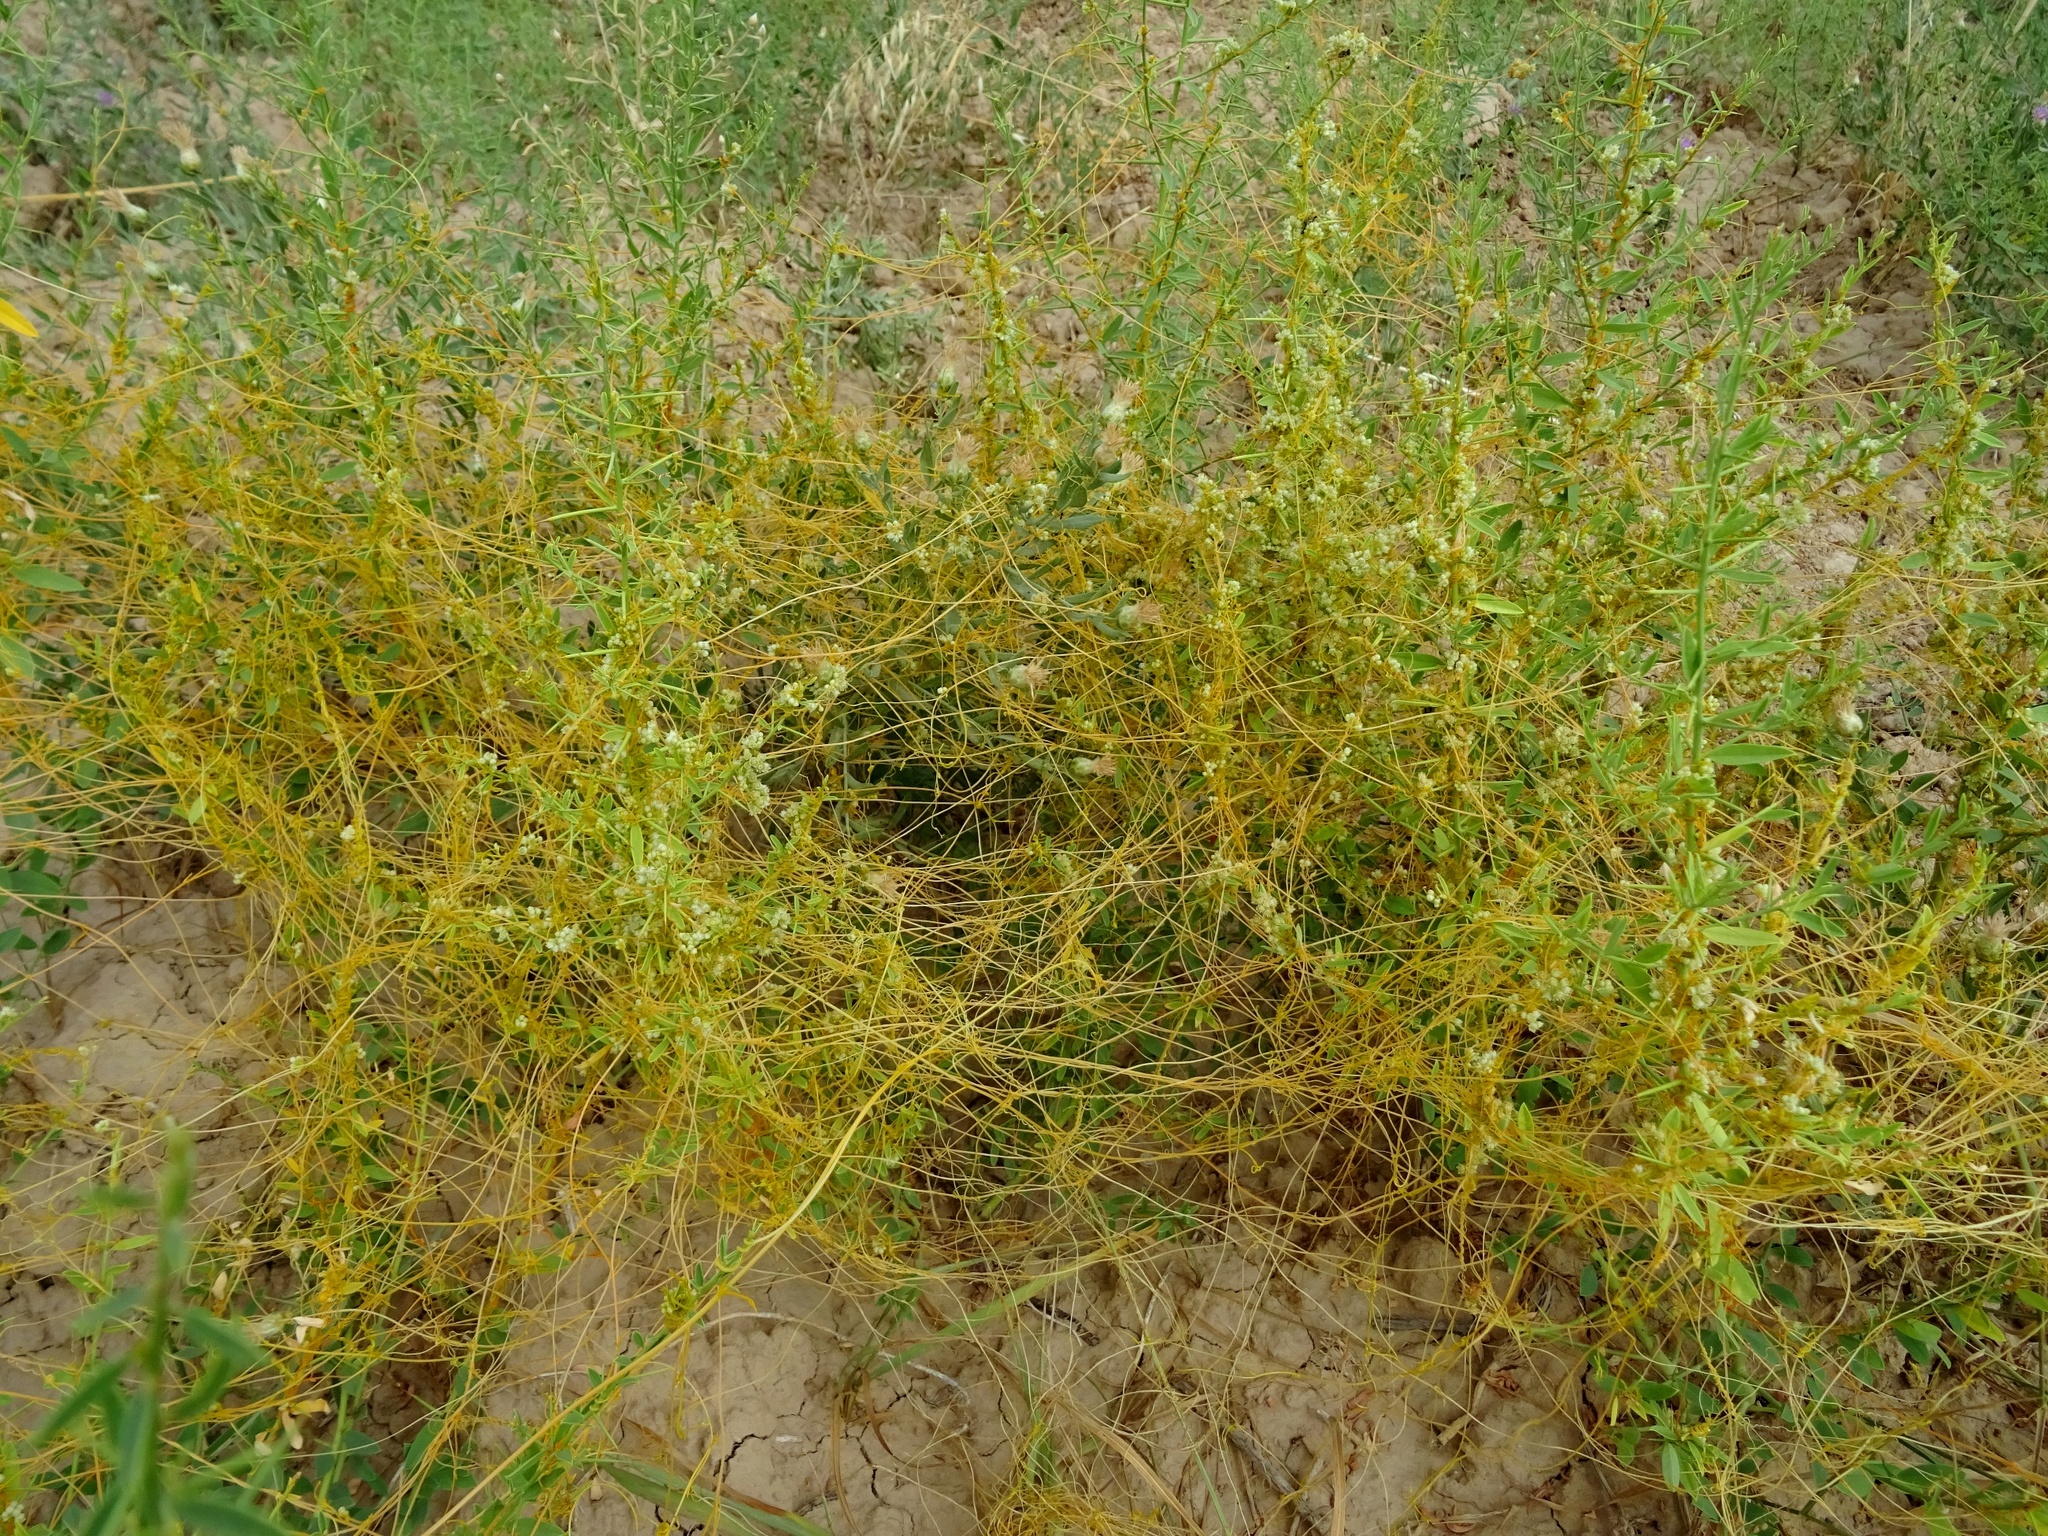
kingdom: Plantae
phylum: Tracheophyta
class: Magnoliopsida
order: Solanales
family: Convolvulaceae
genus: Cuscuta
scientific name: Cuscuta campestris
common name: Yellow dodder
